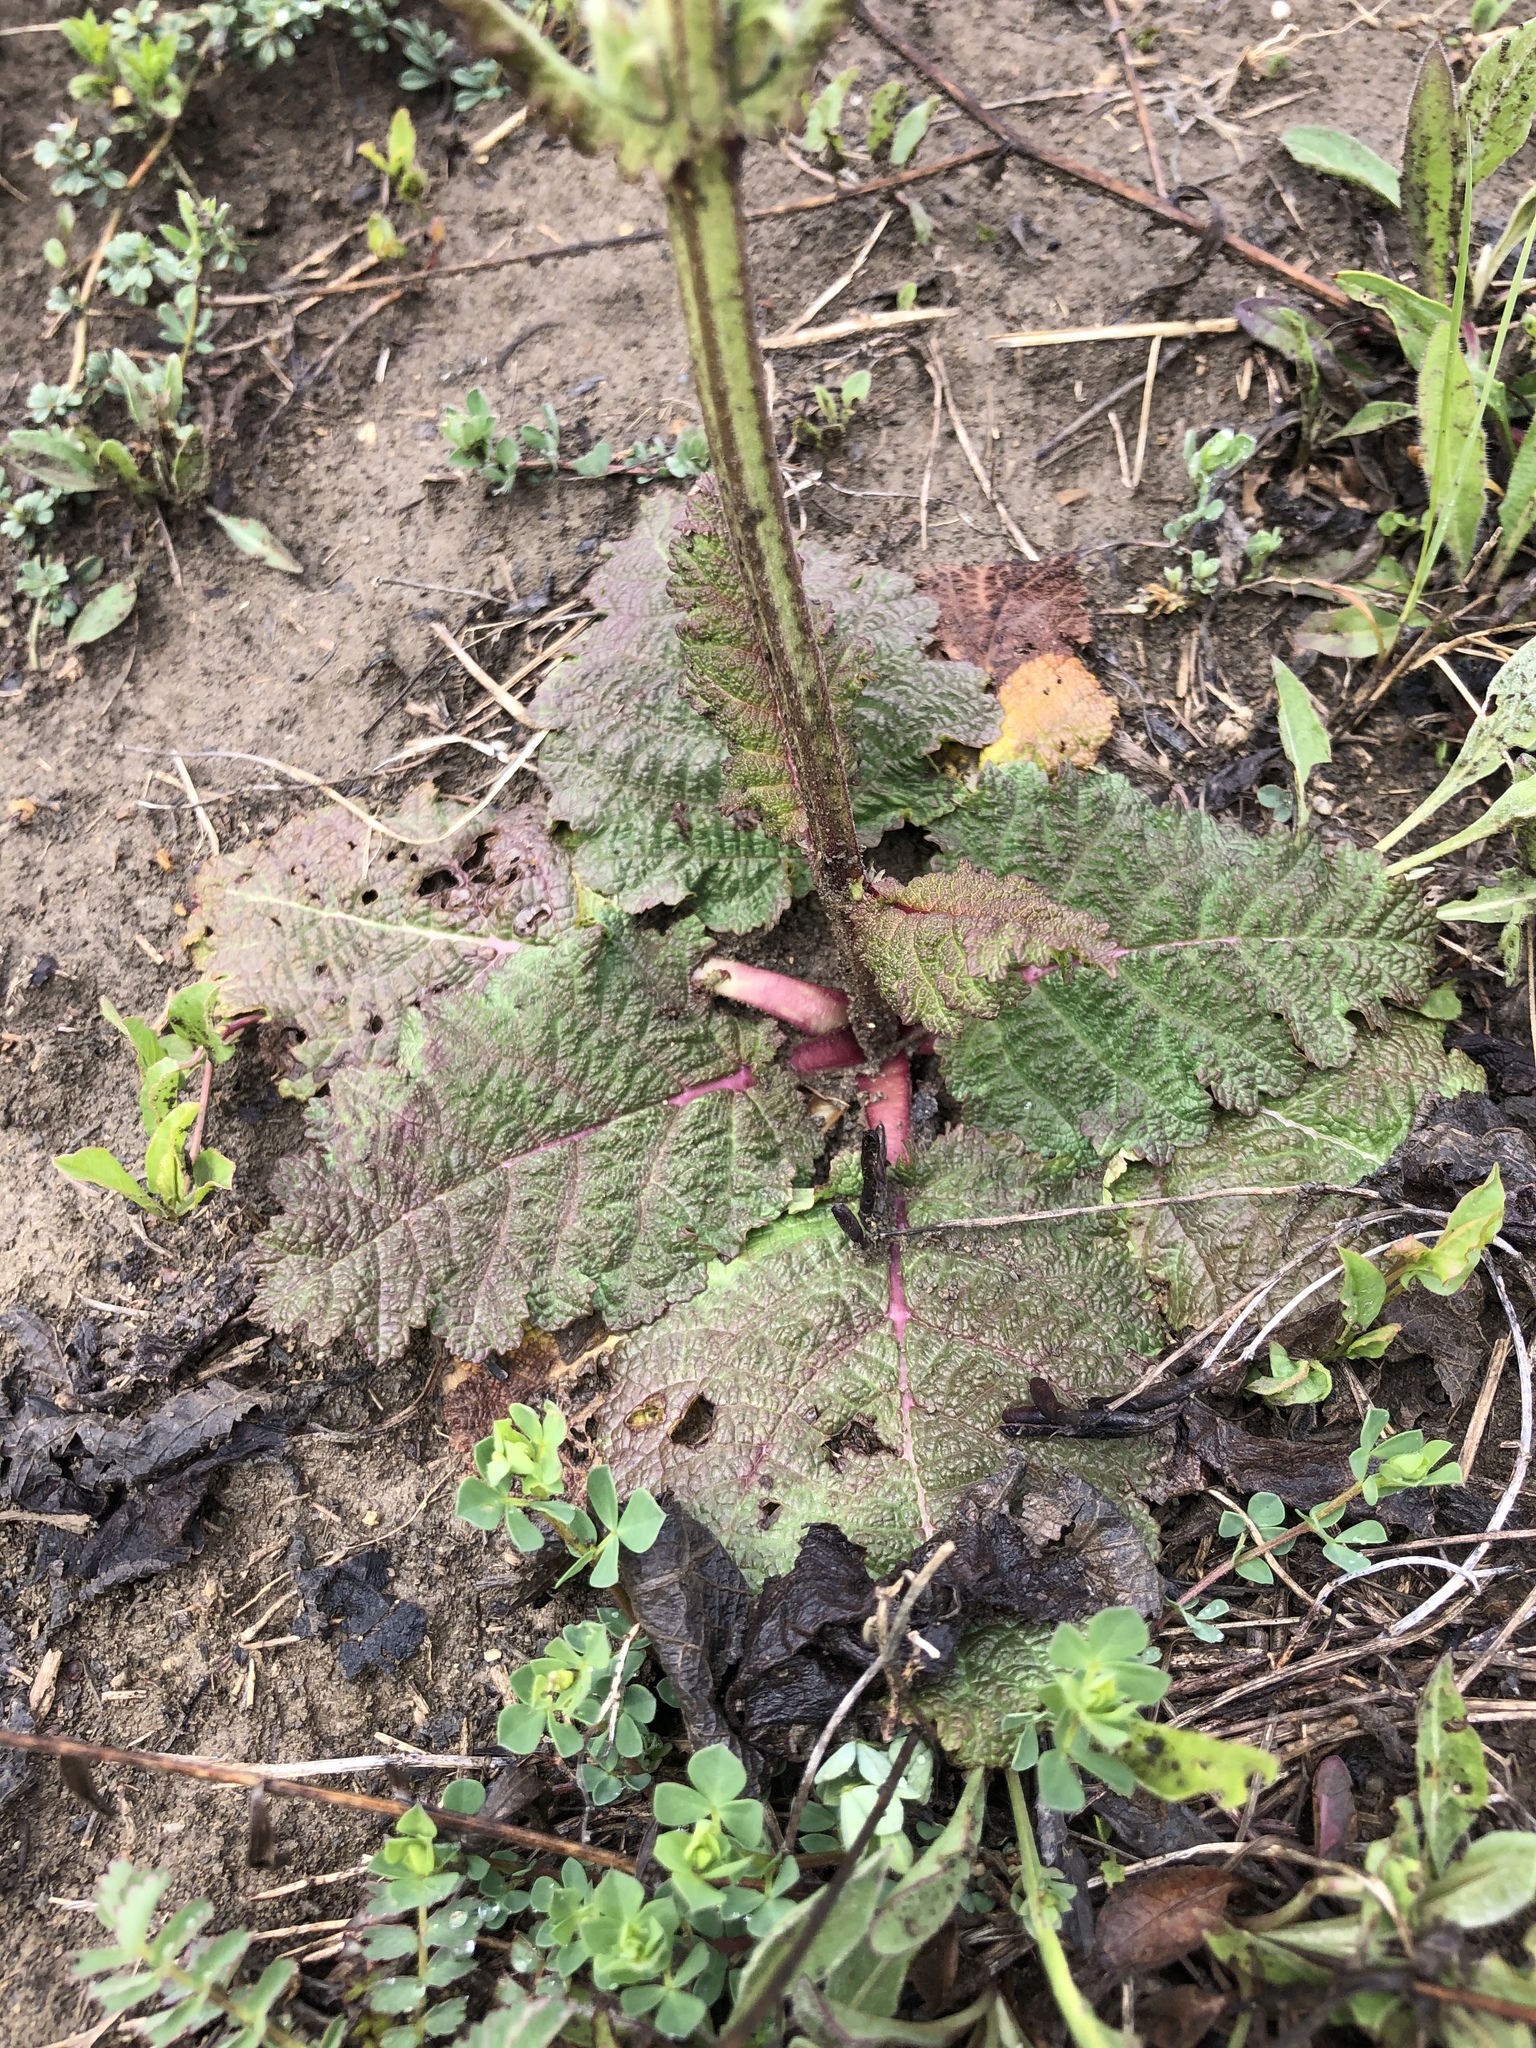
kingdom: Plantae
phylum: Tracheophyta
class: Magnoliopsida
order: Lamiales
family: Lamiaceae
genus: Salvia
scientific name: Salvia austriaca
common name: Austrian sage
